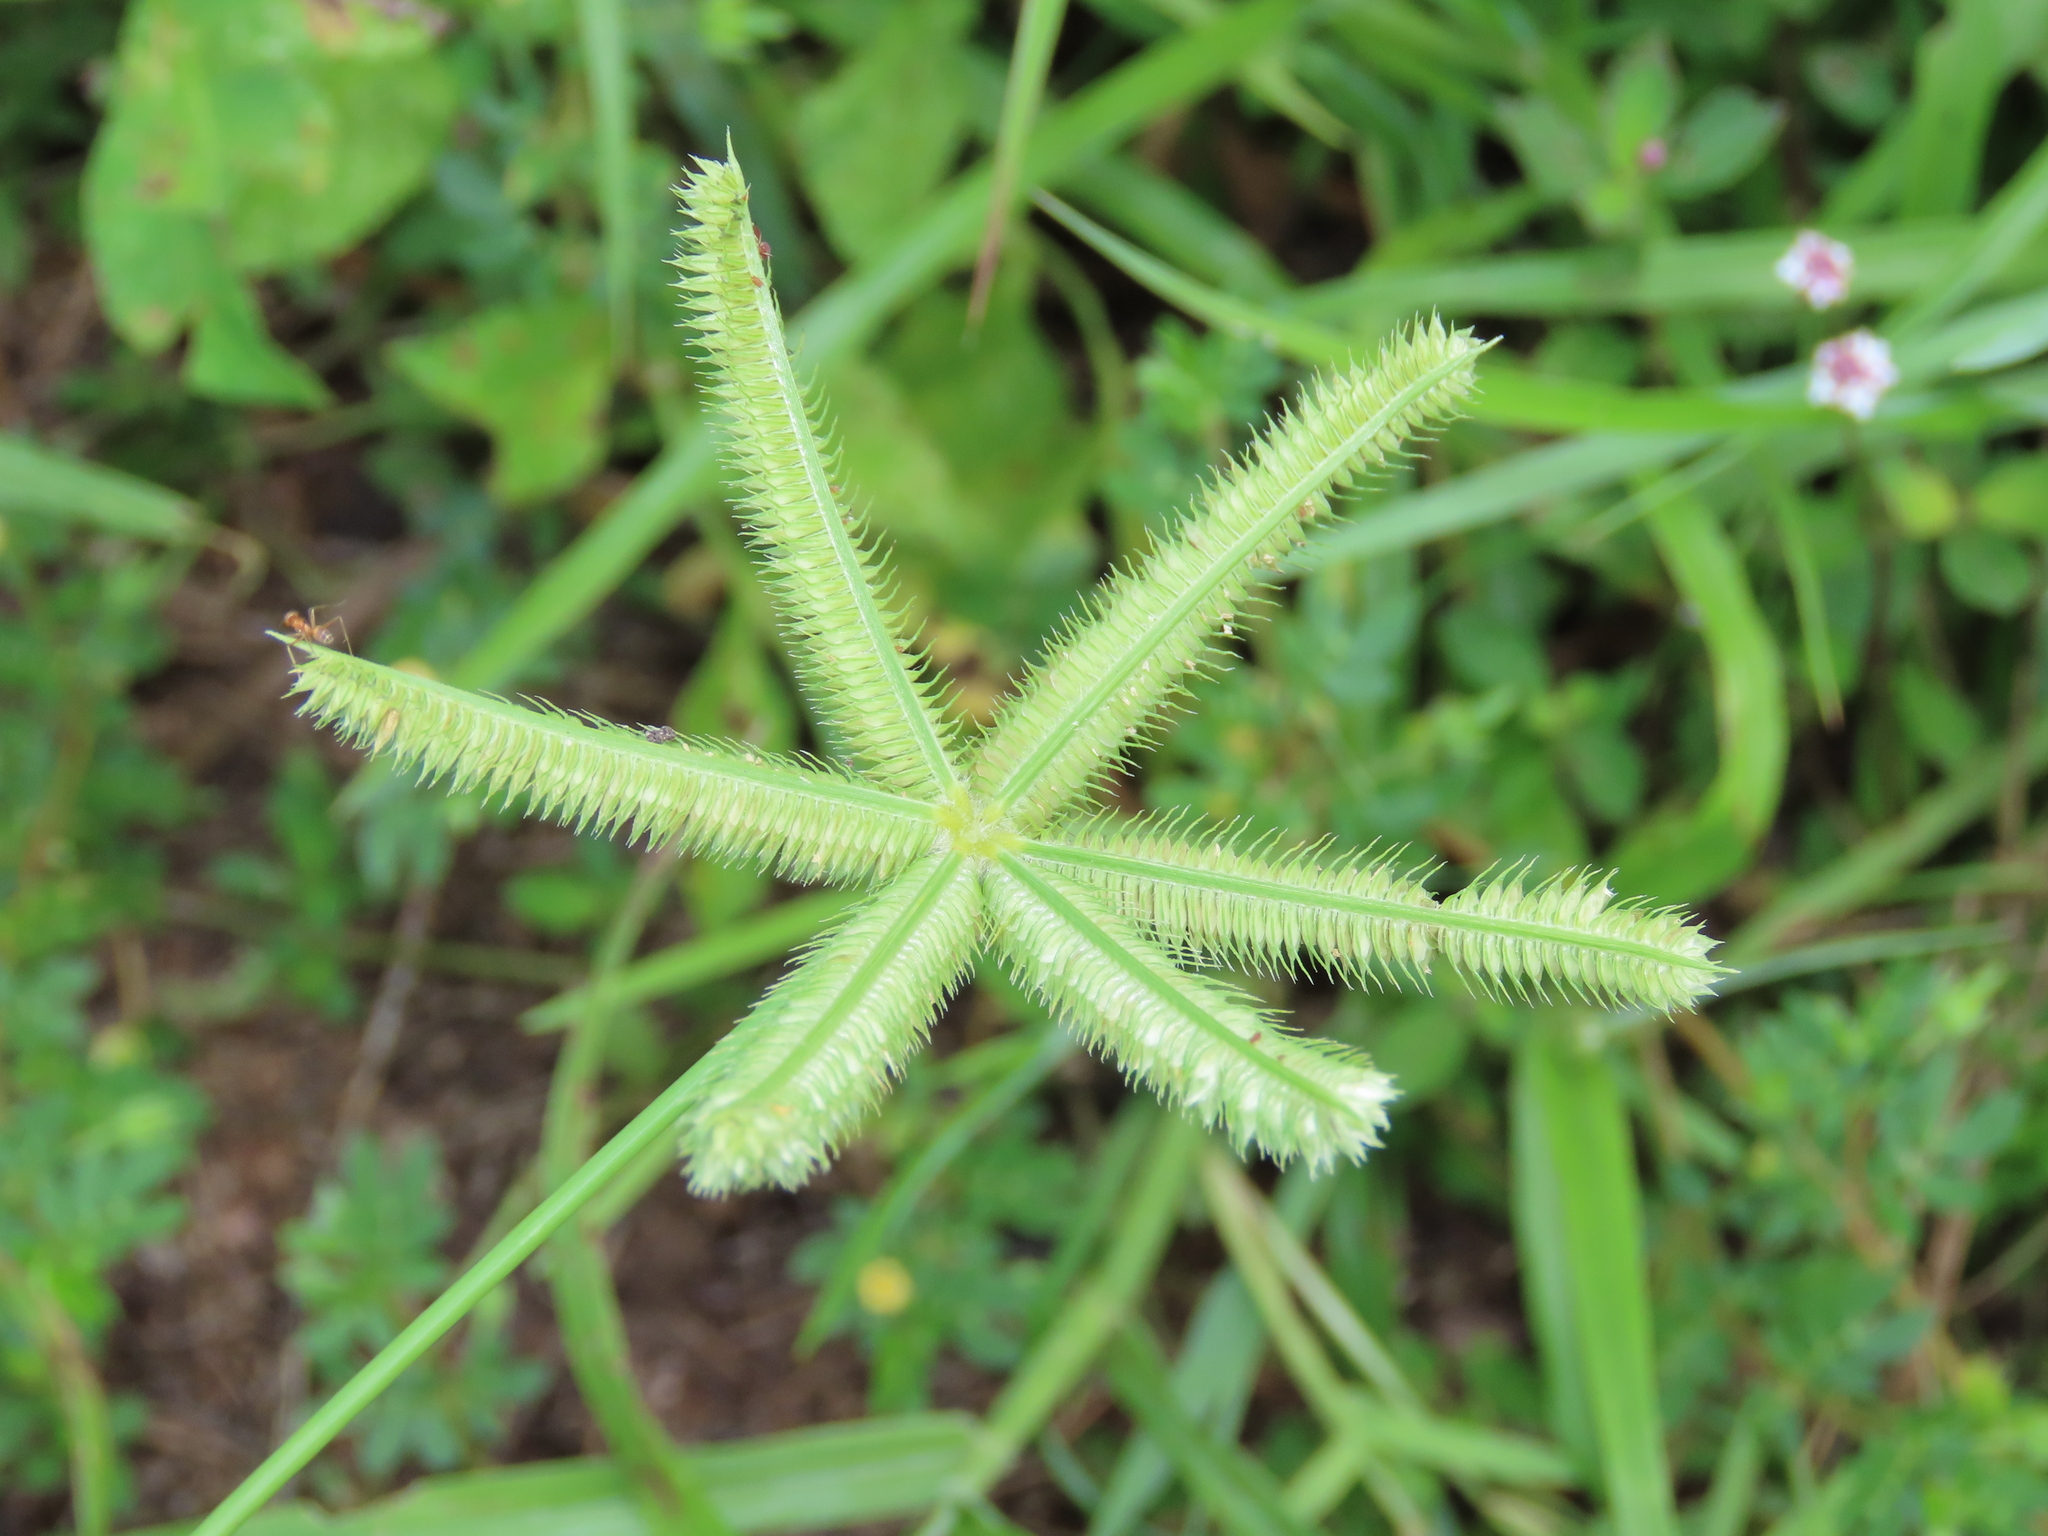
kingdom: Plantae
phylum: Tracheophyta
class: Liliopsida
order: Poales
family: Poaceae
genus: Dactyloctenium
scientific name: Dactyloctenium aegyptium
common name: Egyptian grass
